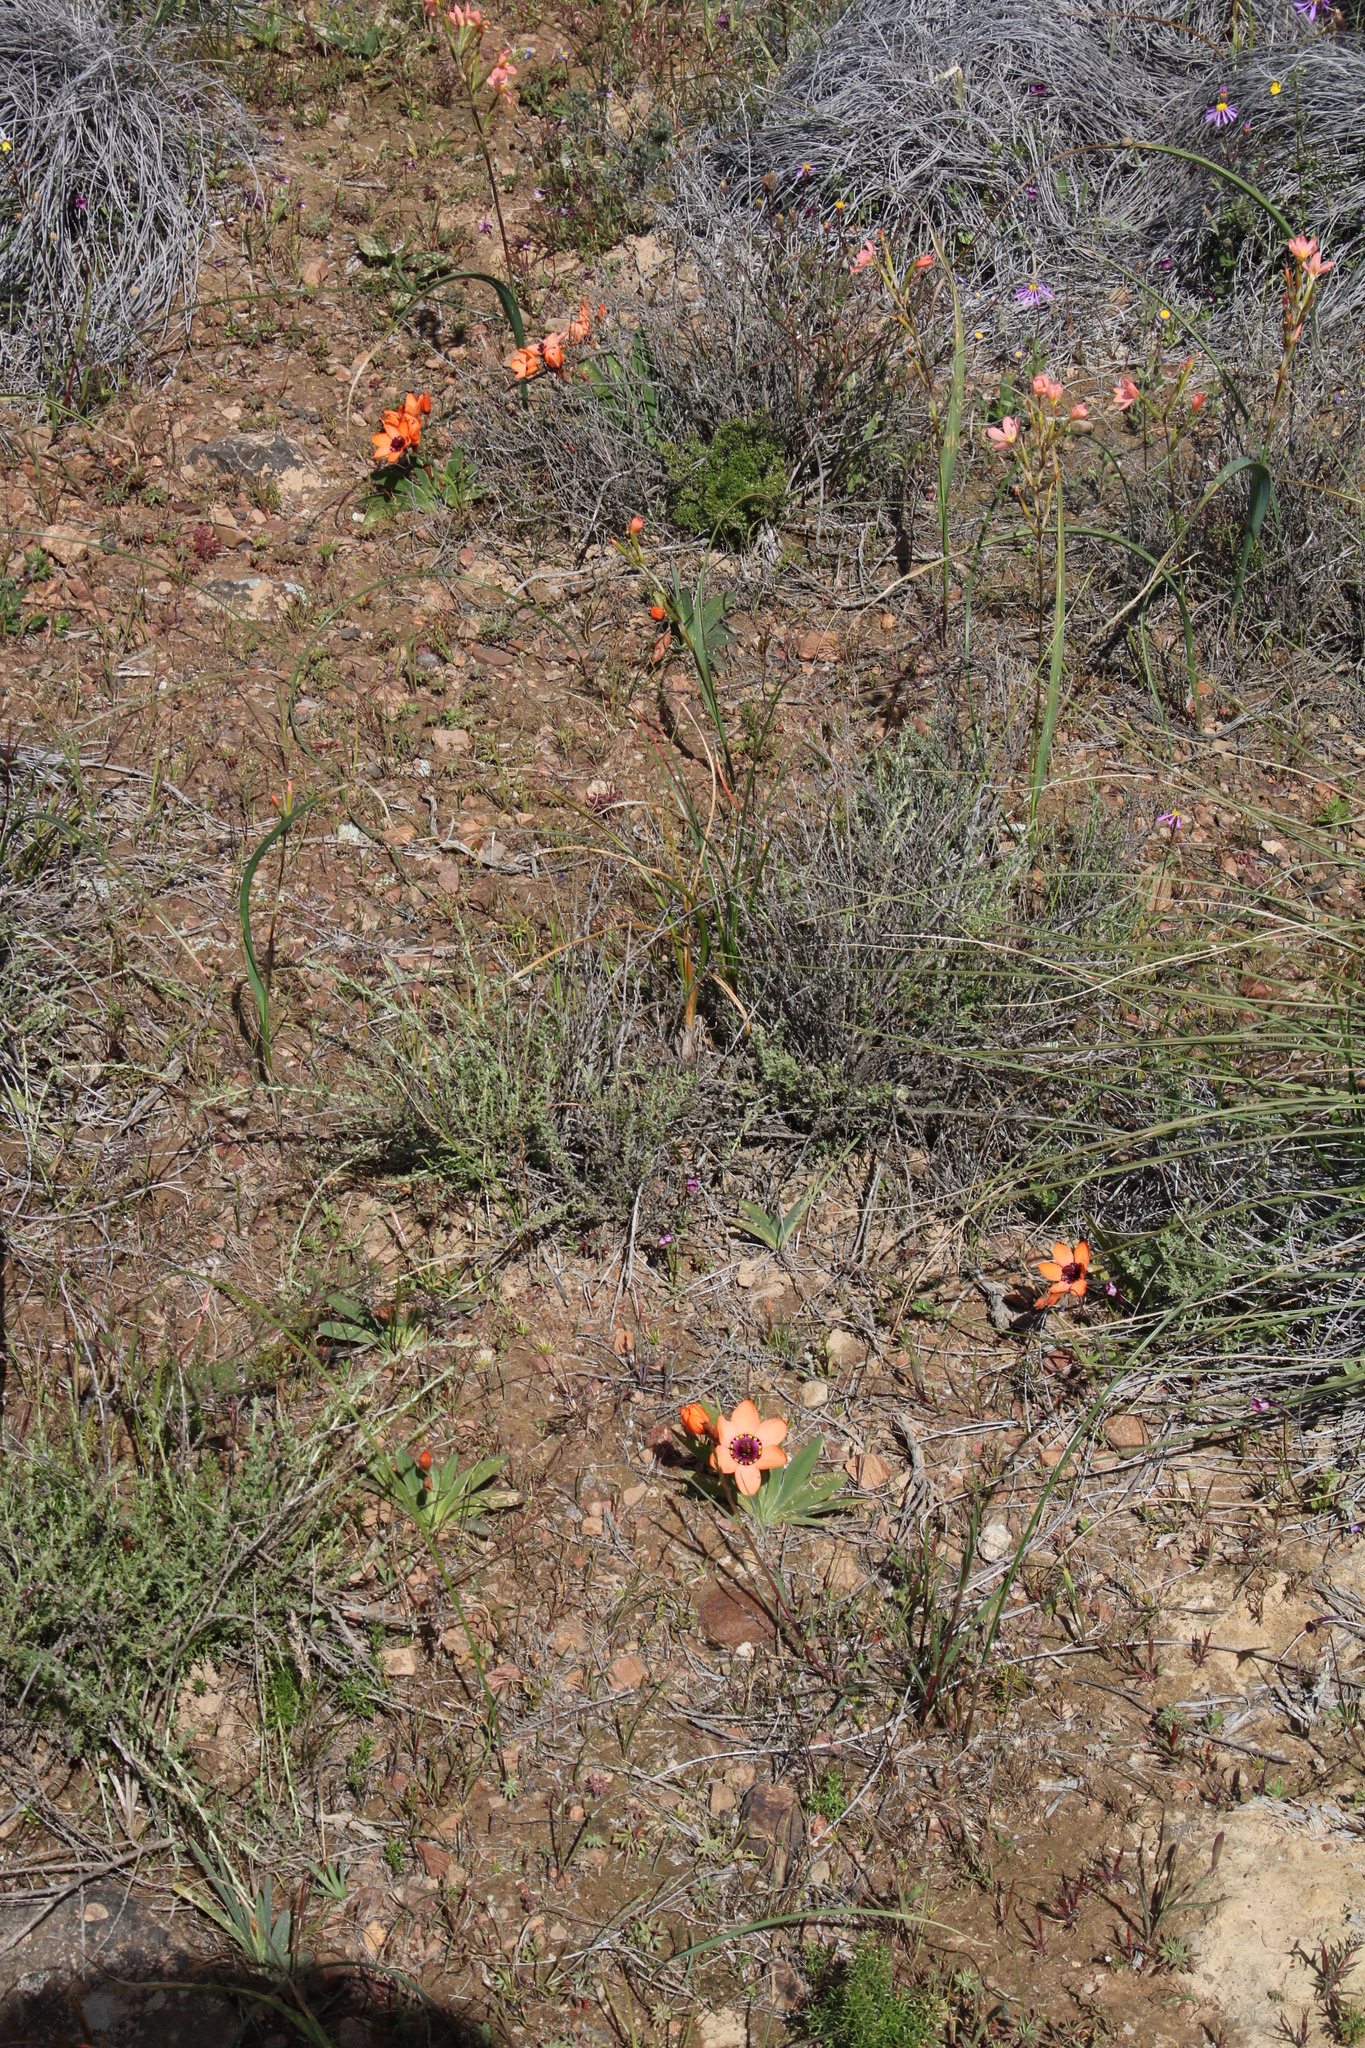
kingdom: Plantae
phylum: Tracheophyta
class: Liliopsida
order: Asparagales
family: Iridaceae
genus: Sparaxis
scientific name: Sparaxis elegans
